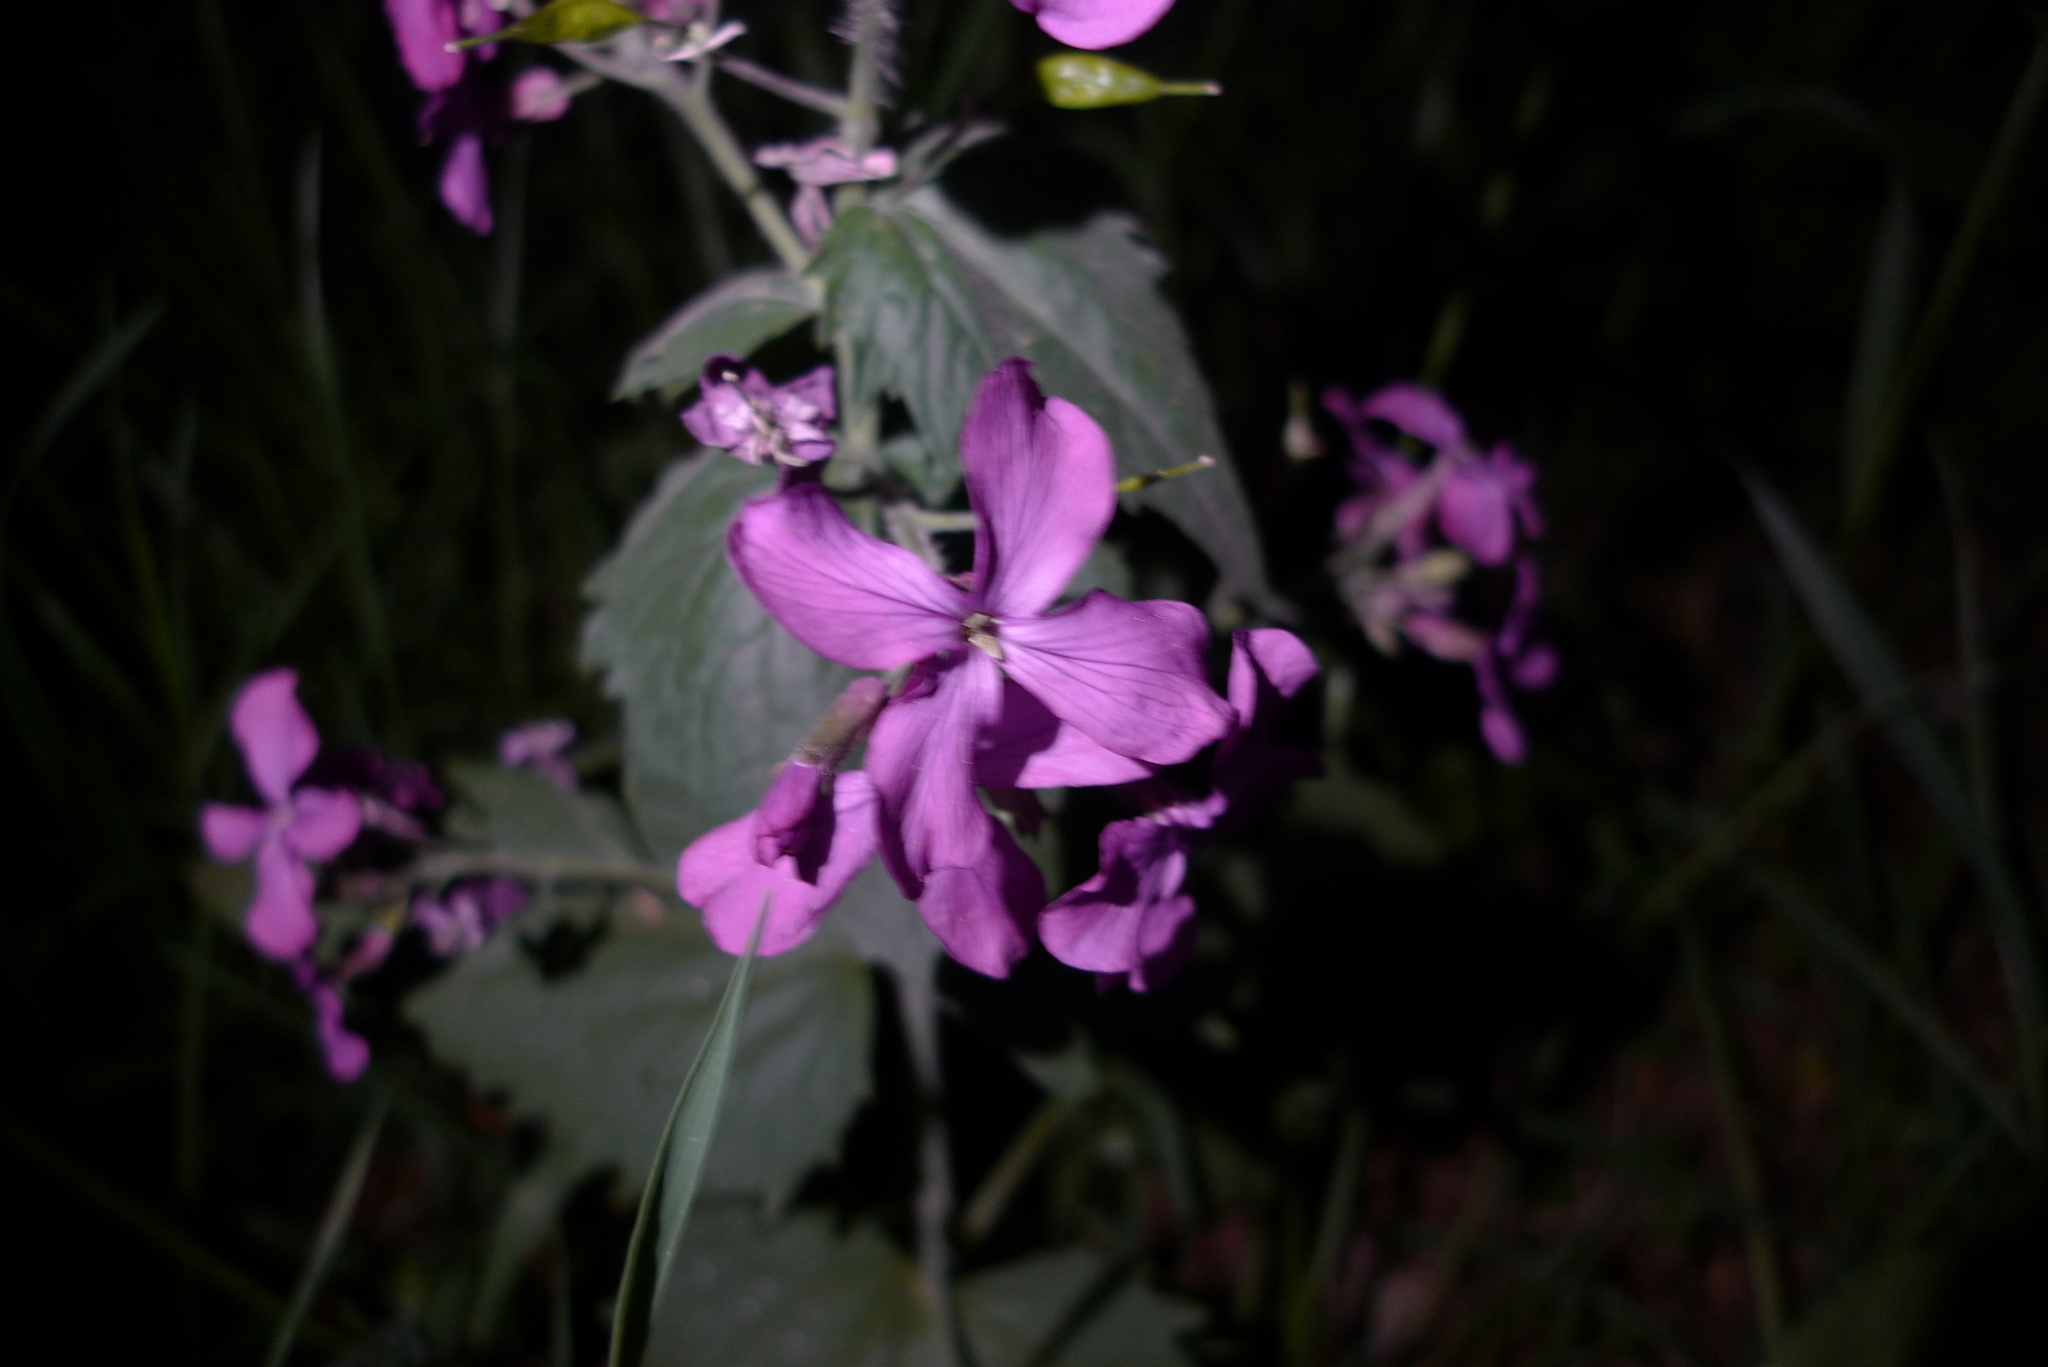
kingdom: Plantae
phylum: Tracheophyta
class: Magnoliopsida
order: Brassicales
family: Brassicaceae
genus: Lunaria
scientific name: Lunaria annua
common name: Honesty
